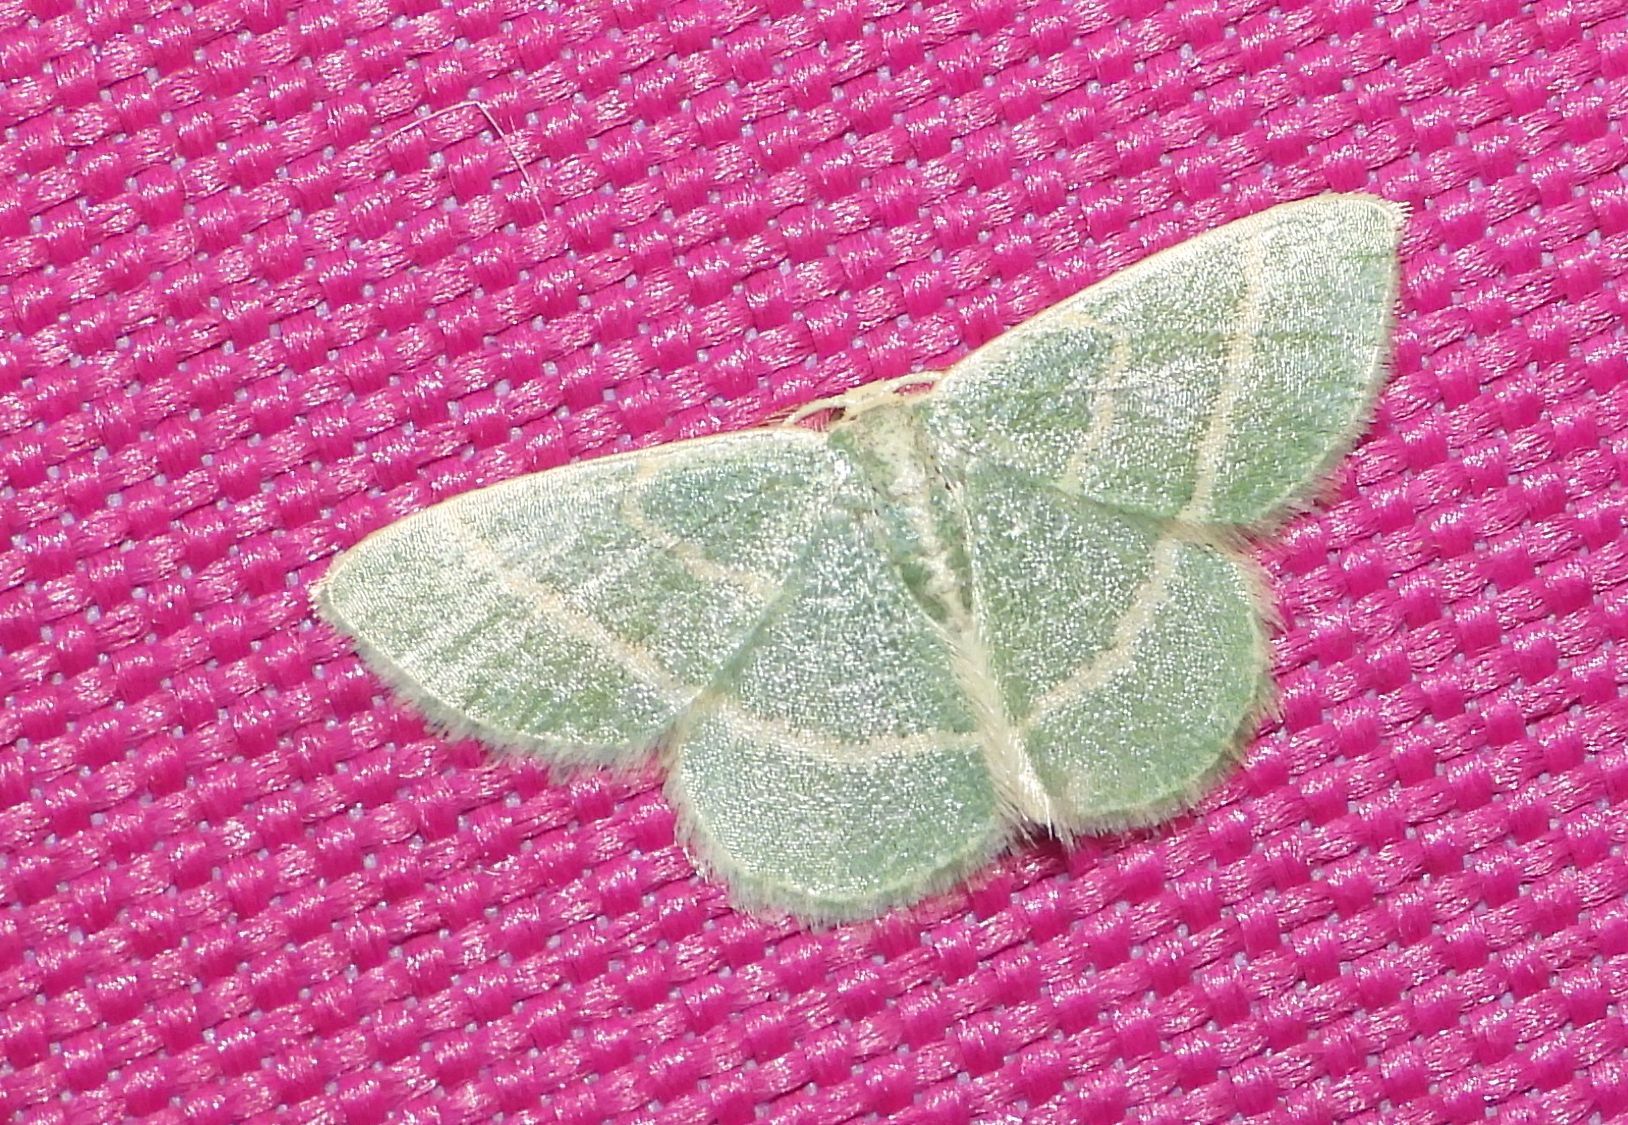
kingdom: Animalia
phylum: Arthropoda
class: Insecta
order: Lepidoptera
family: Geometridae
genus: Chlorochlamys
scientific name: Chlorochlamys chloroleucaria
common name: Blackberry looper
